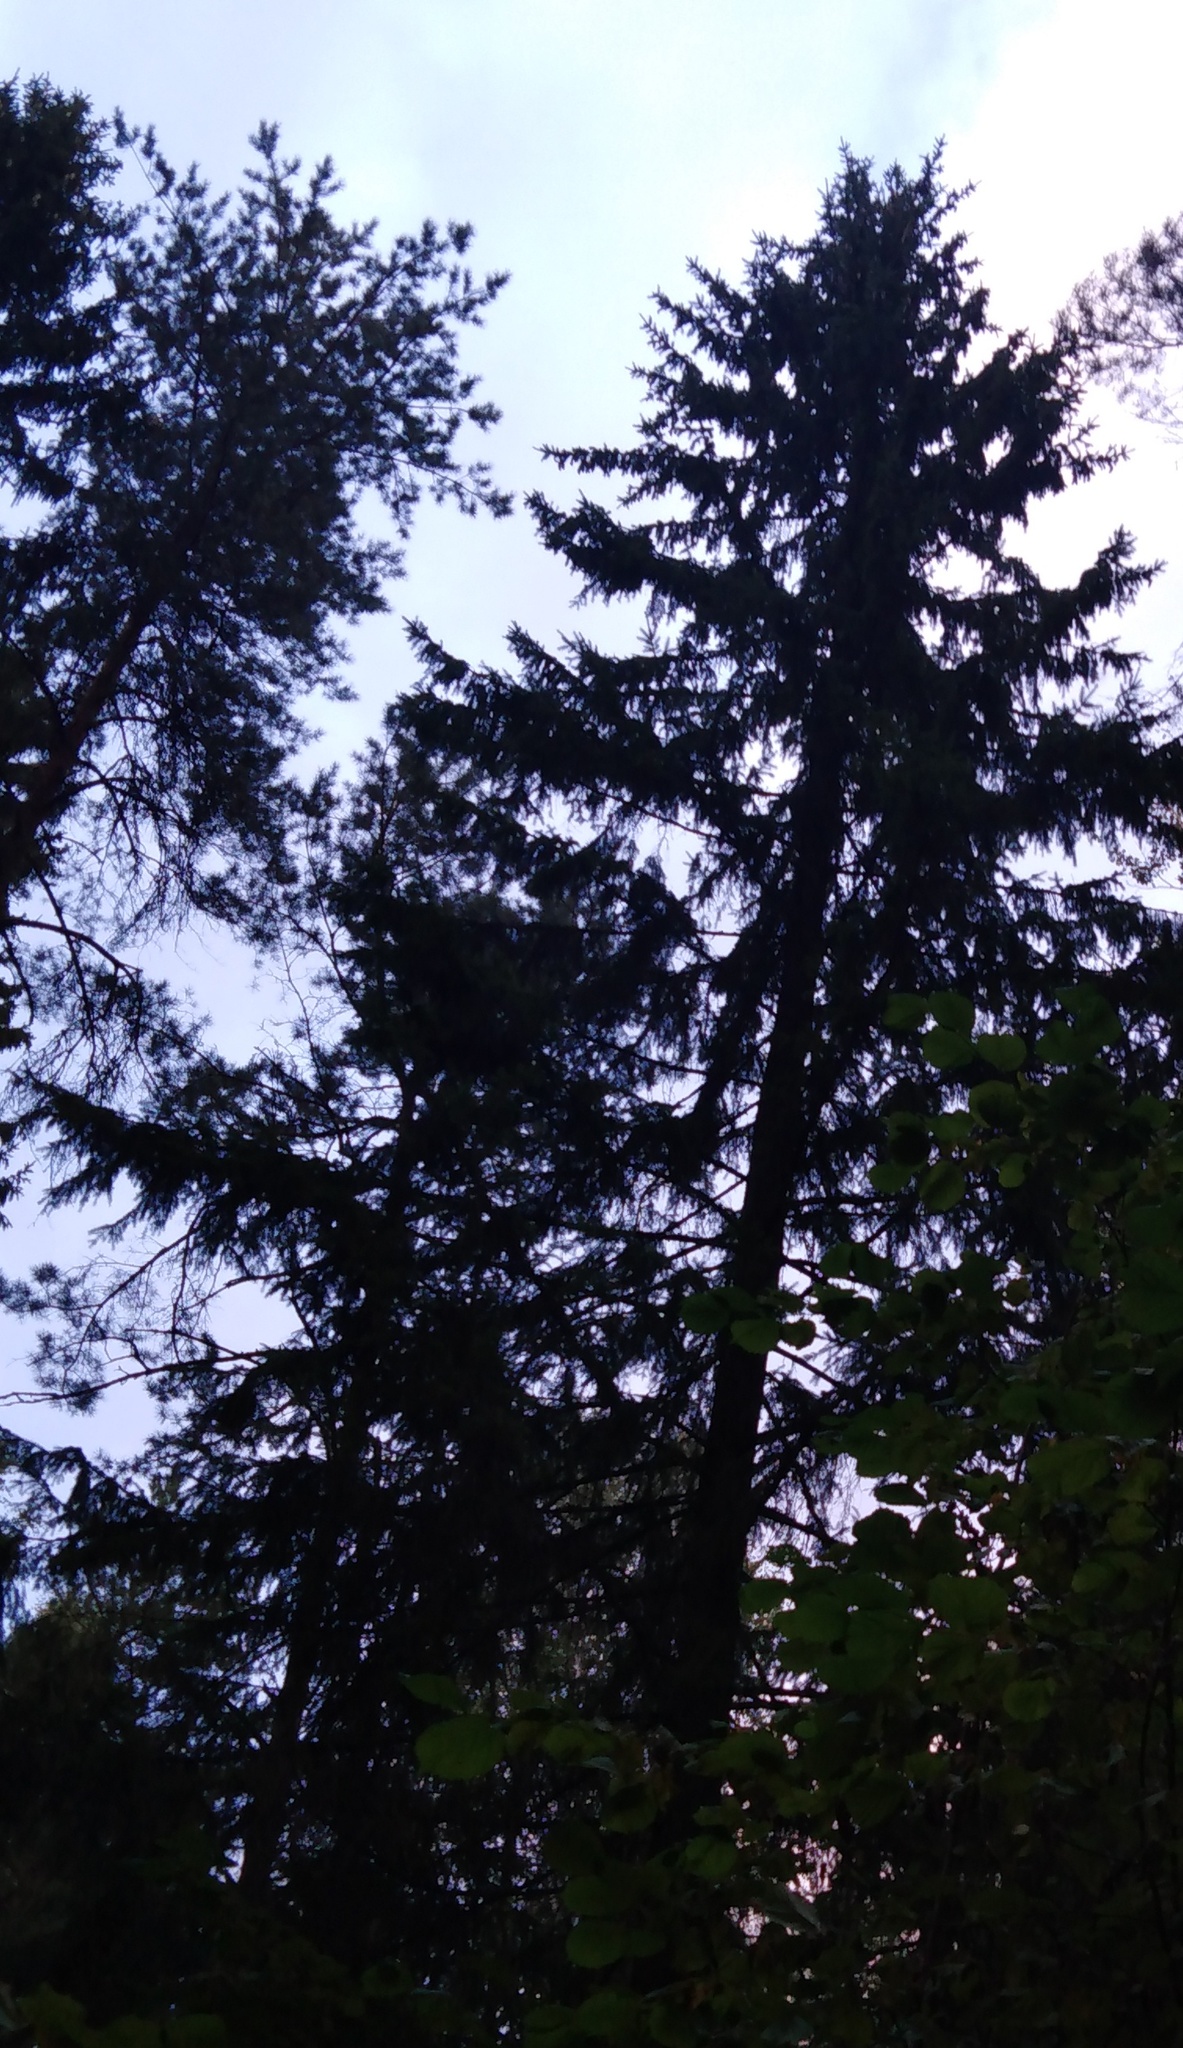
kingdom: Plantae
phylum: Tracheophyta
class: Pinopsida
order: Pinales
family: Pinaceae
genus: Picea
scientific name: Picea abies
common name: Norway spruce
